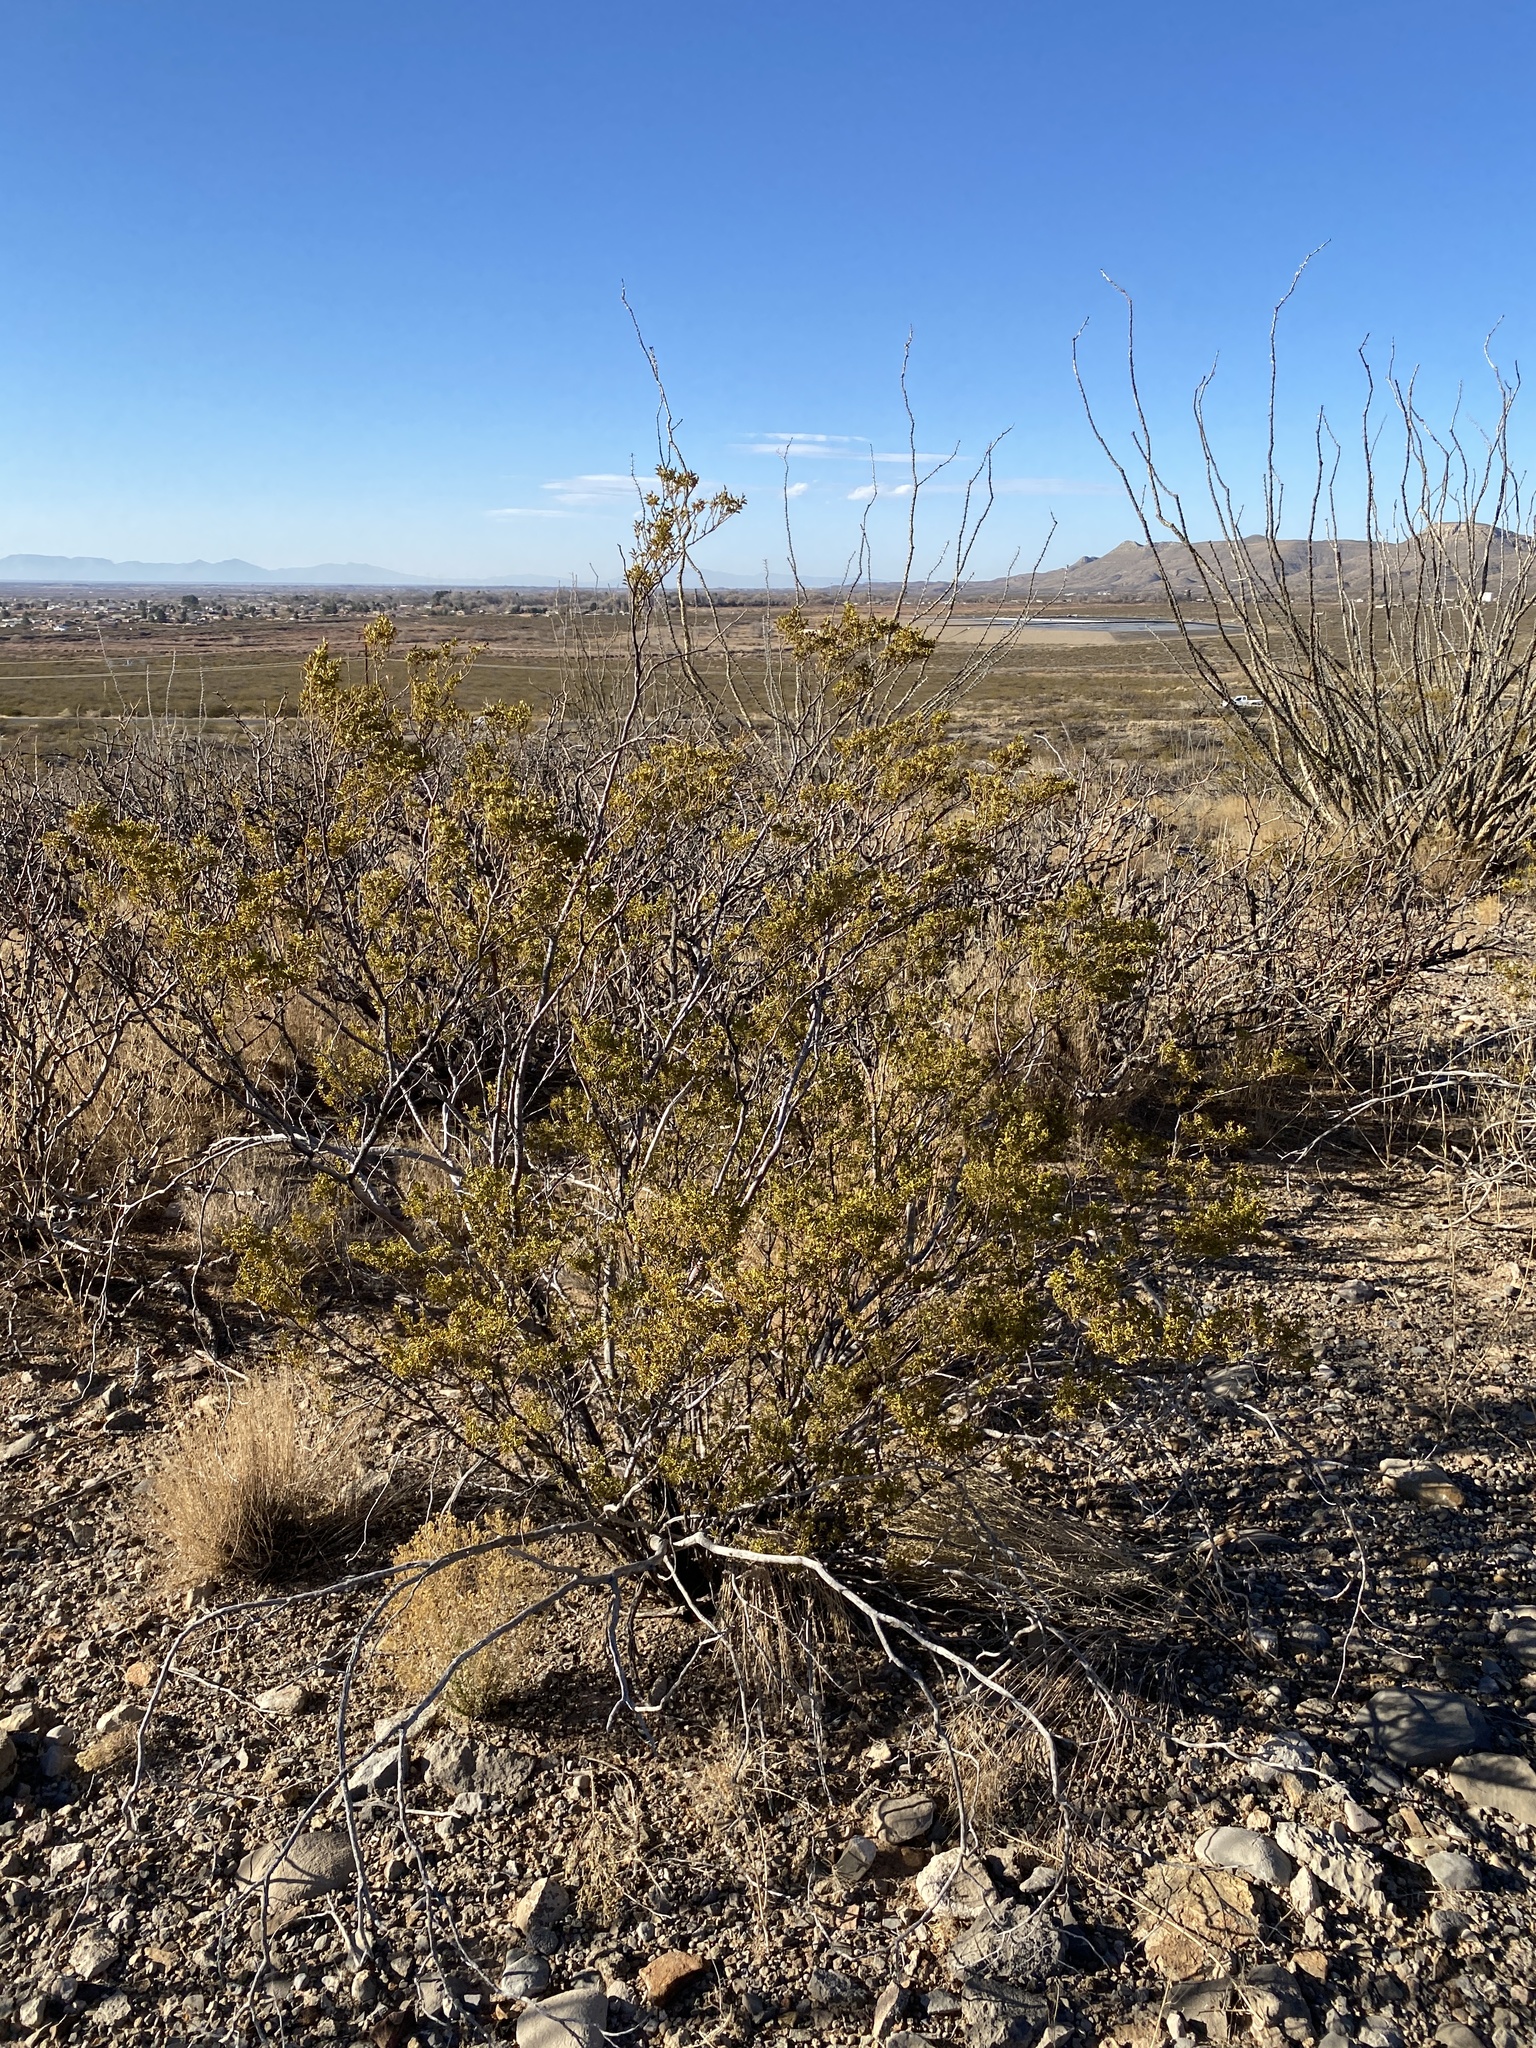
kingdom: Plantae
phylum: Tracheophyta
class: Magnoliopsida
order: Zygophyllales
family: Zygophyllaceae
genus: Larrea
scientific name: Larrea tridentata
